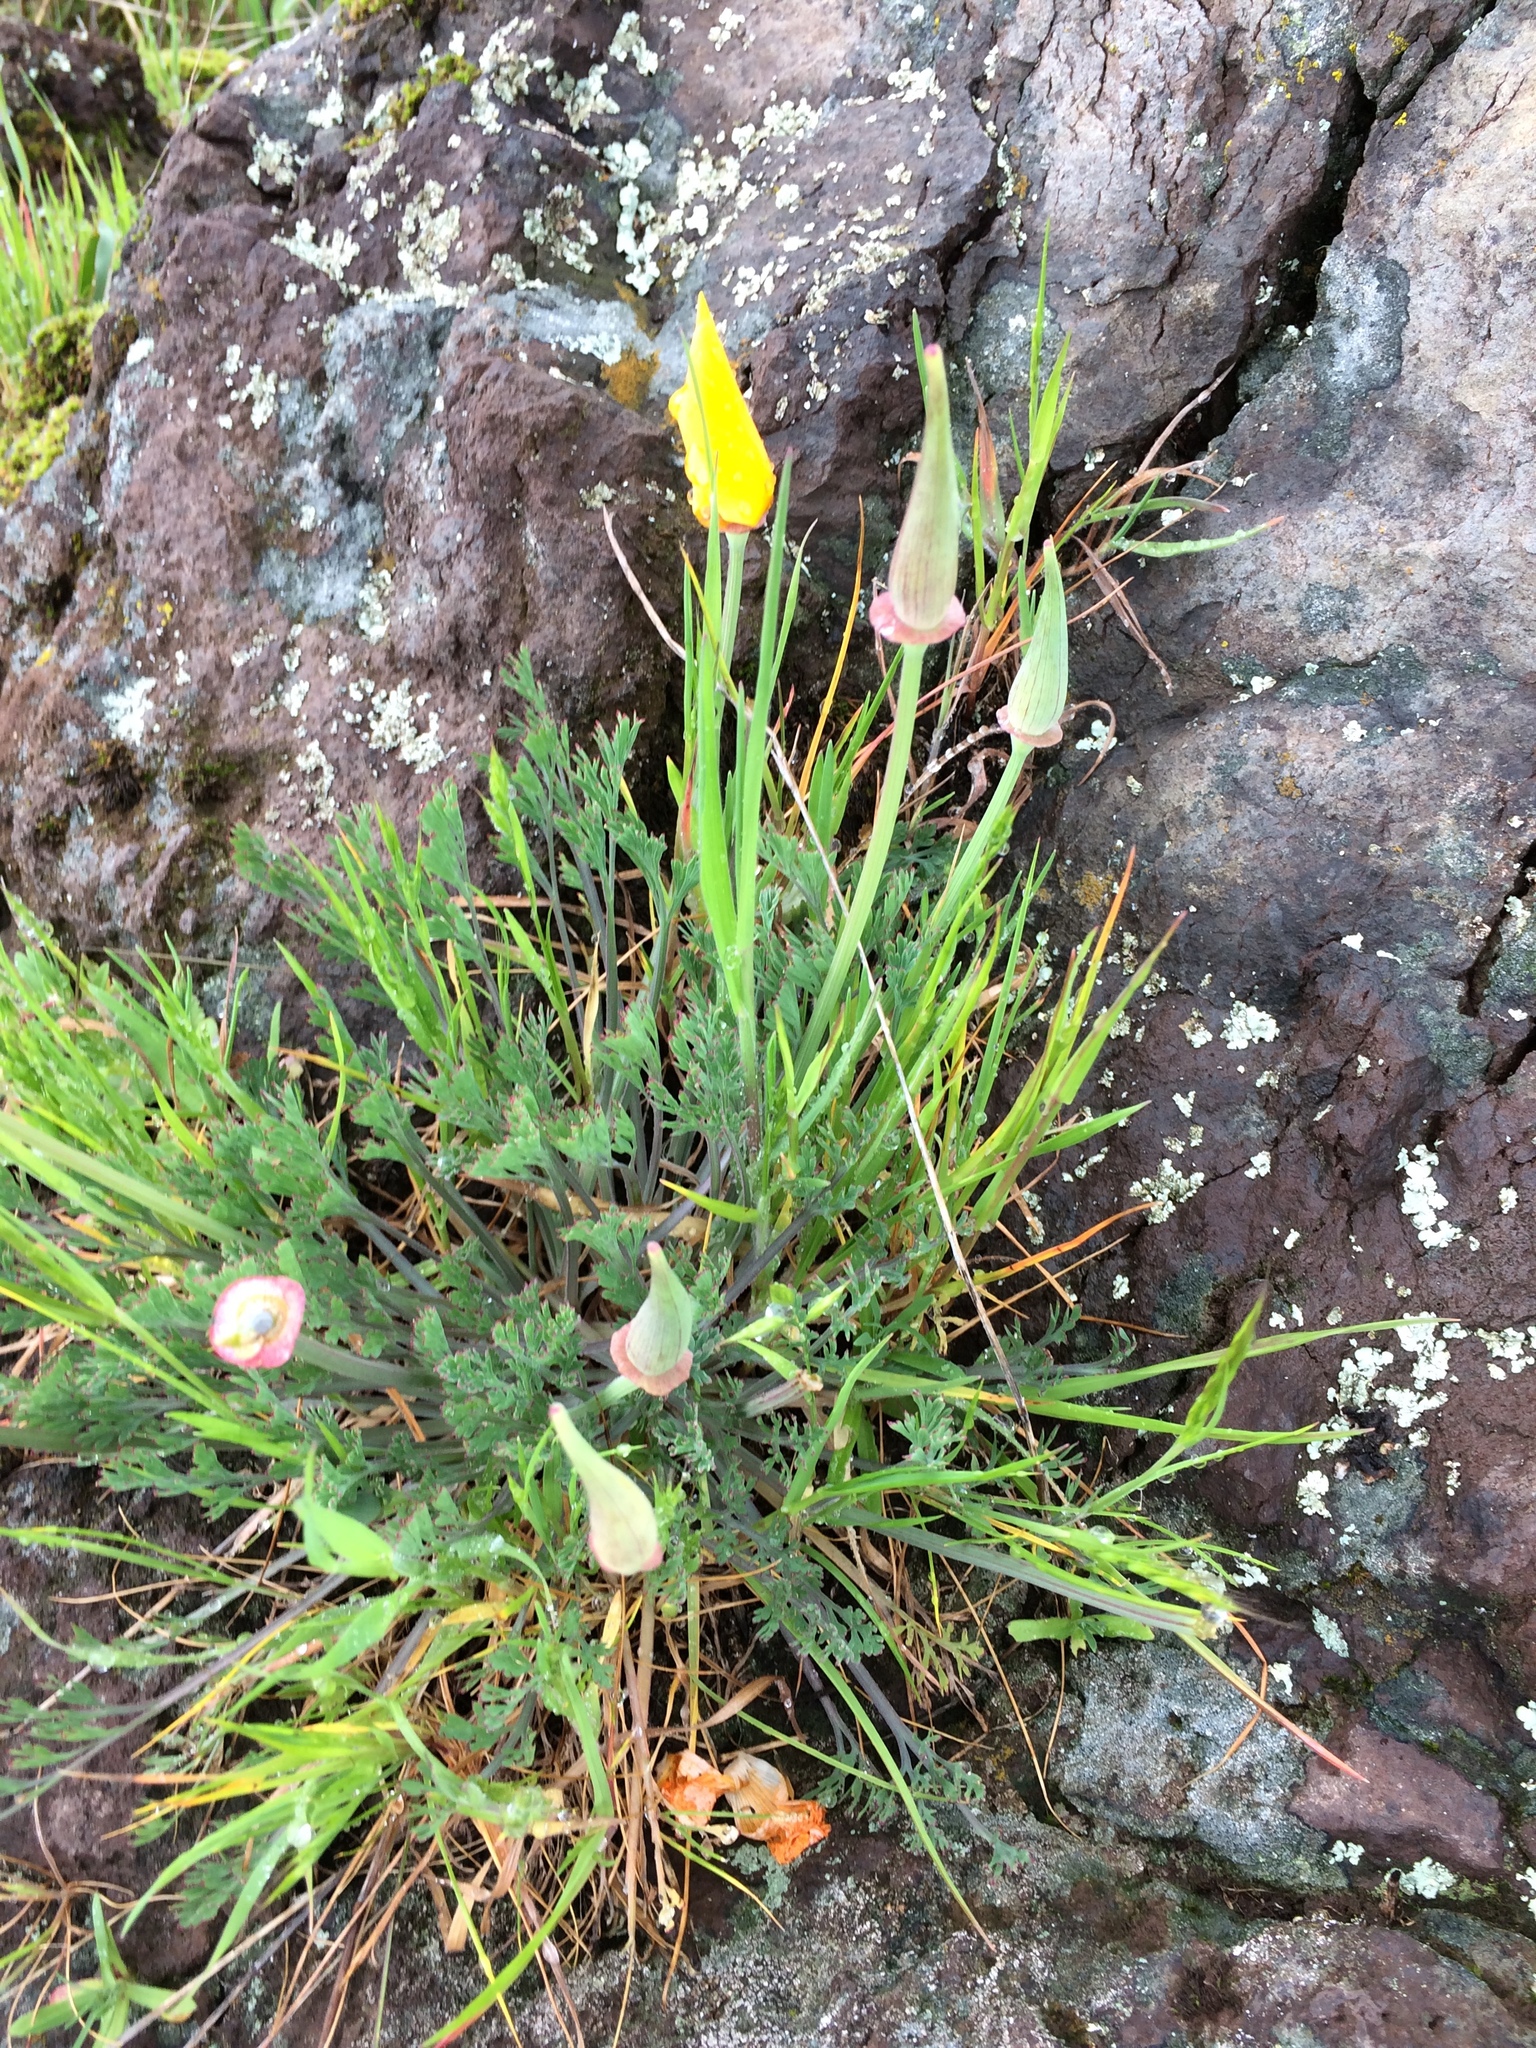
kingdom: Plantae
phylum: Tracheophyta
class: Magnoliopsida
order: Ranunculales
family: Papaveraceae
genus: Eschscholzia
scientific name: Eschscholzia californica
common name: California poppy
